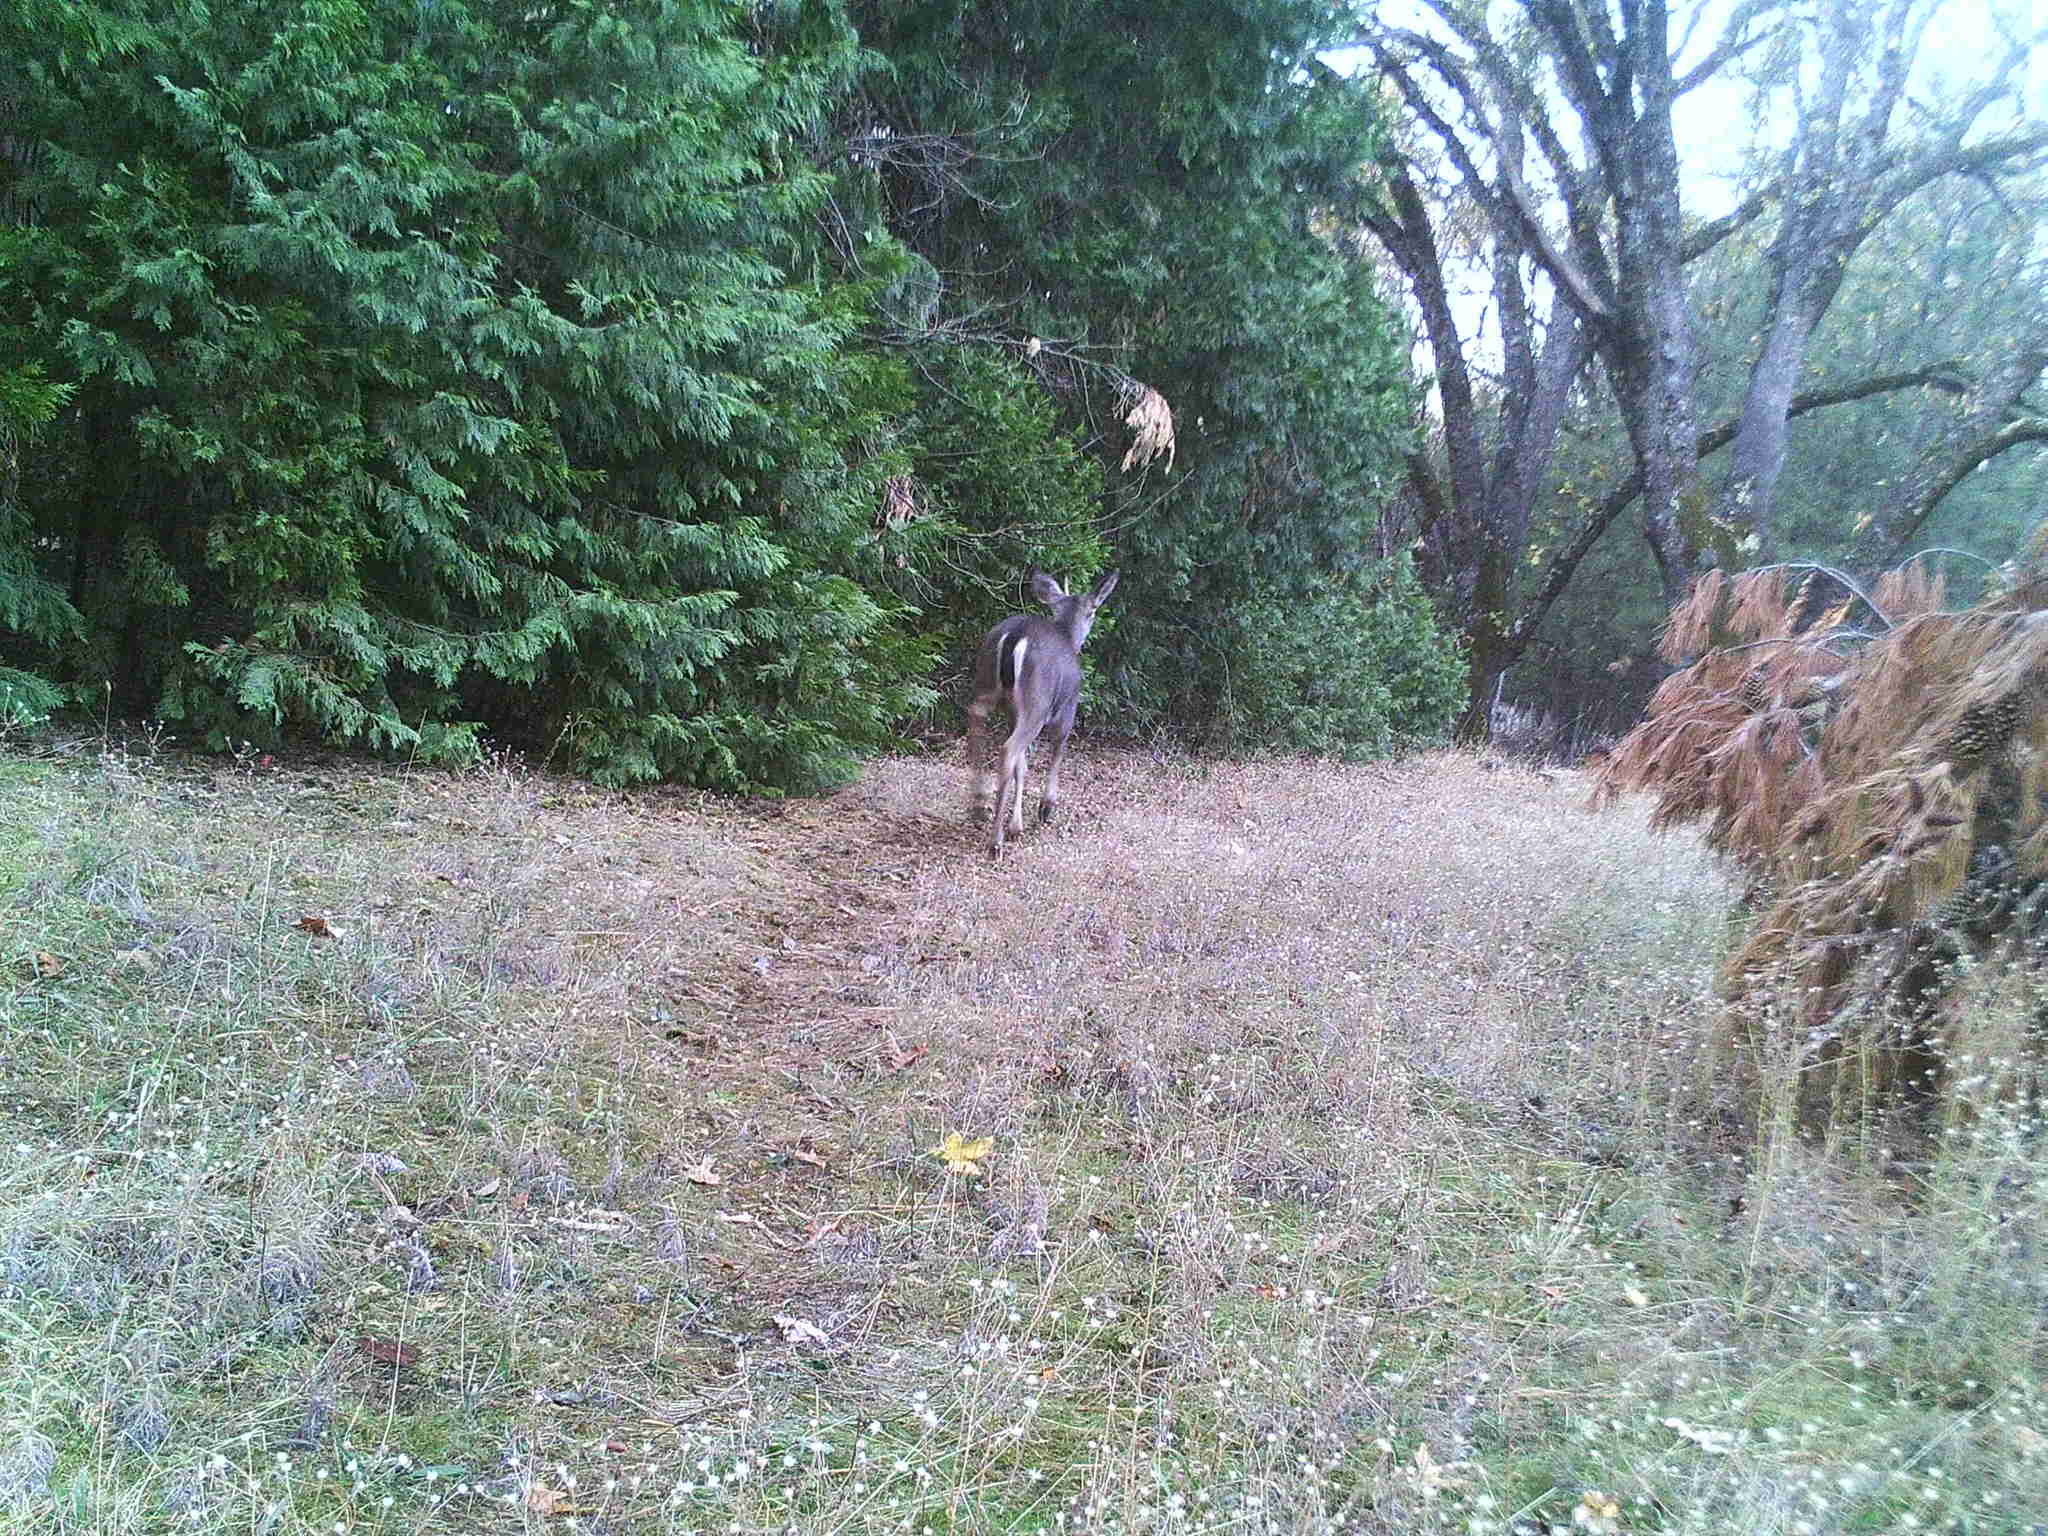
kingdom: Animalia
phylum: Chordata
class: Mammalia
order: Artiodactyla
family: Cervidae
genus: Odocoileus
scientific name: Odocoileus hemionus
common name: Mule deer
